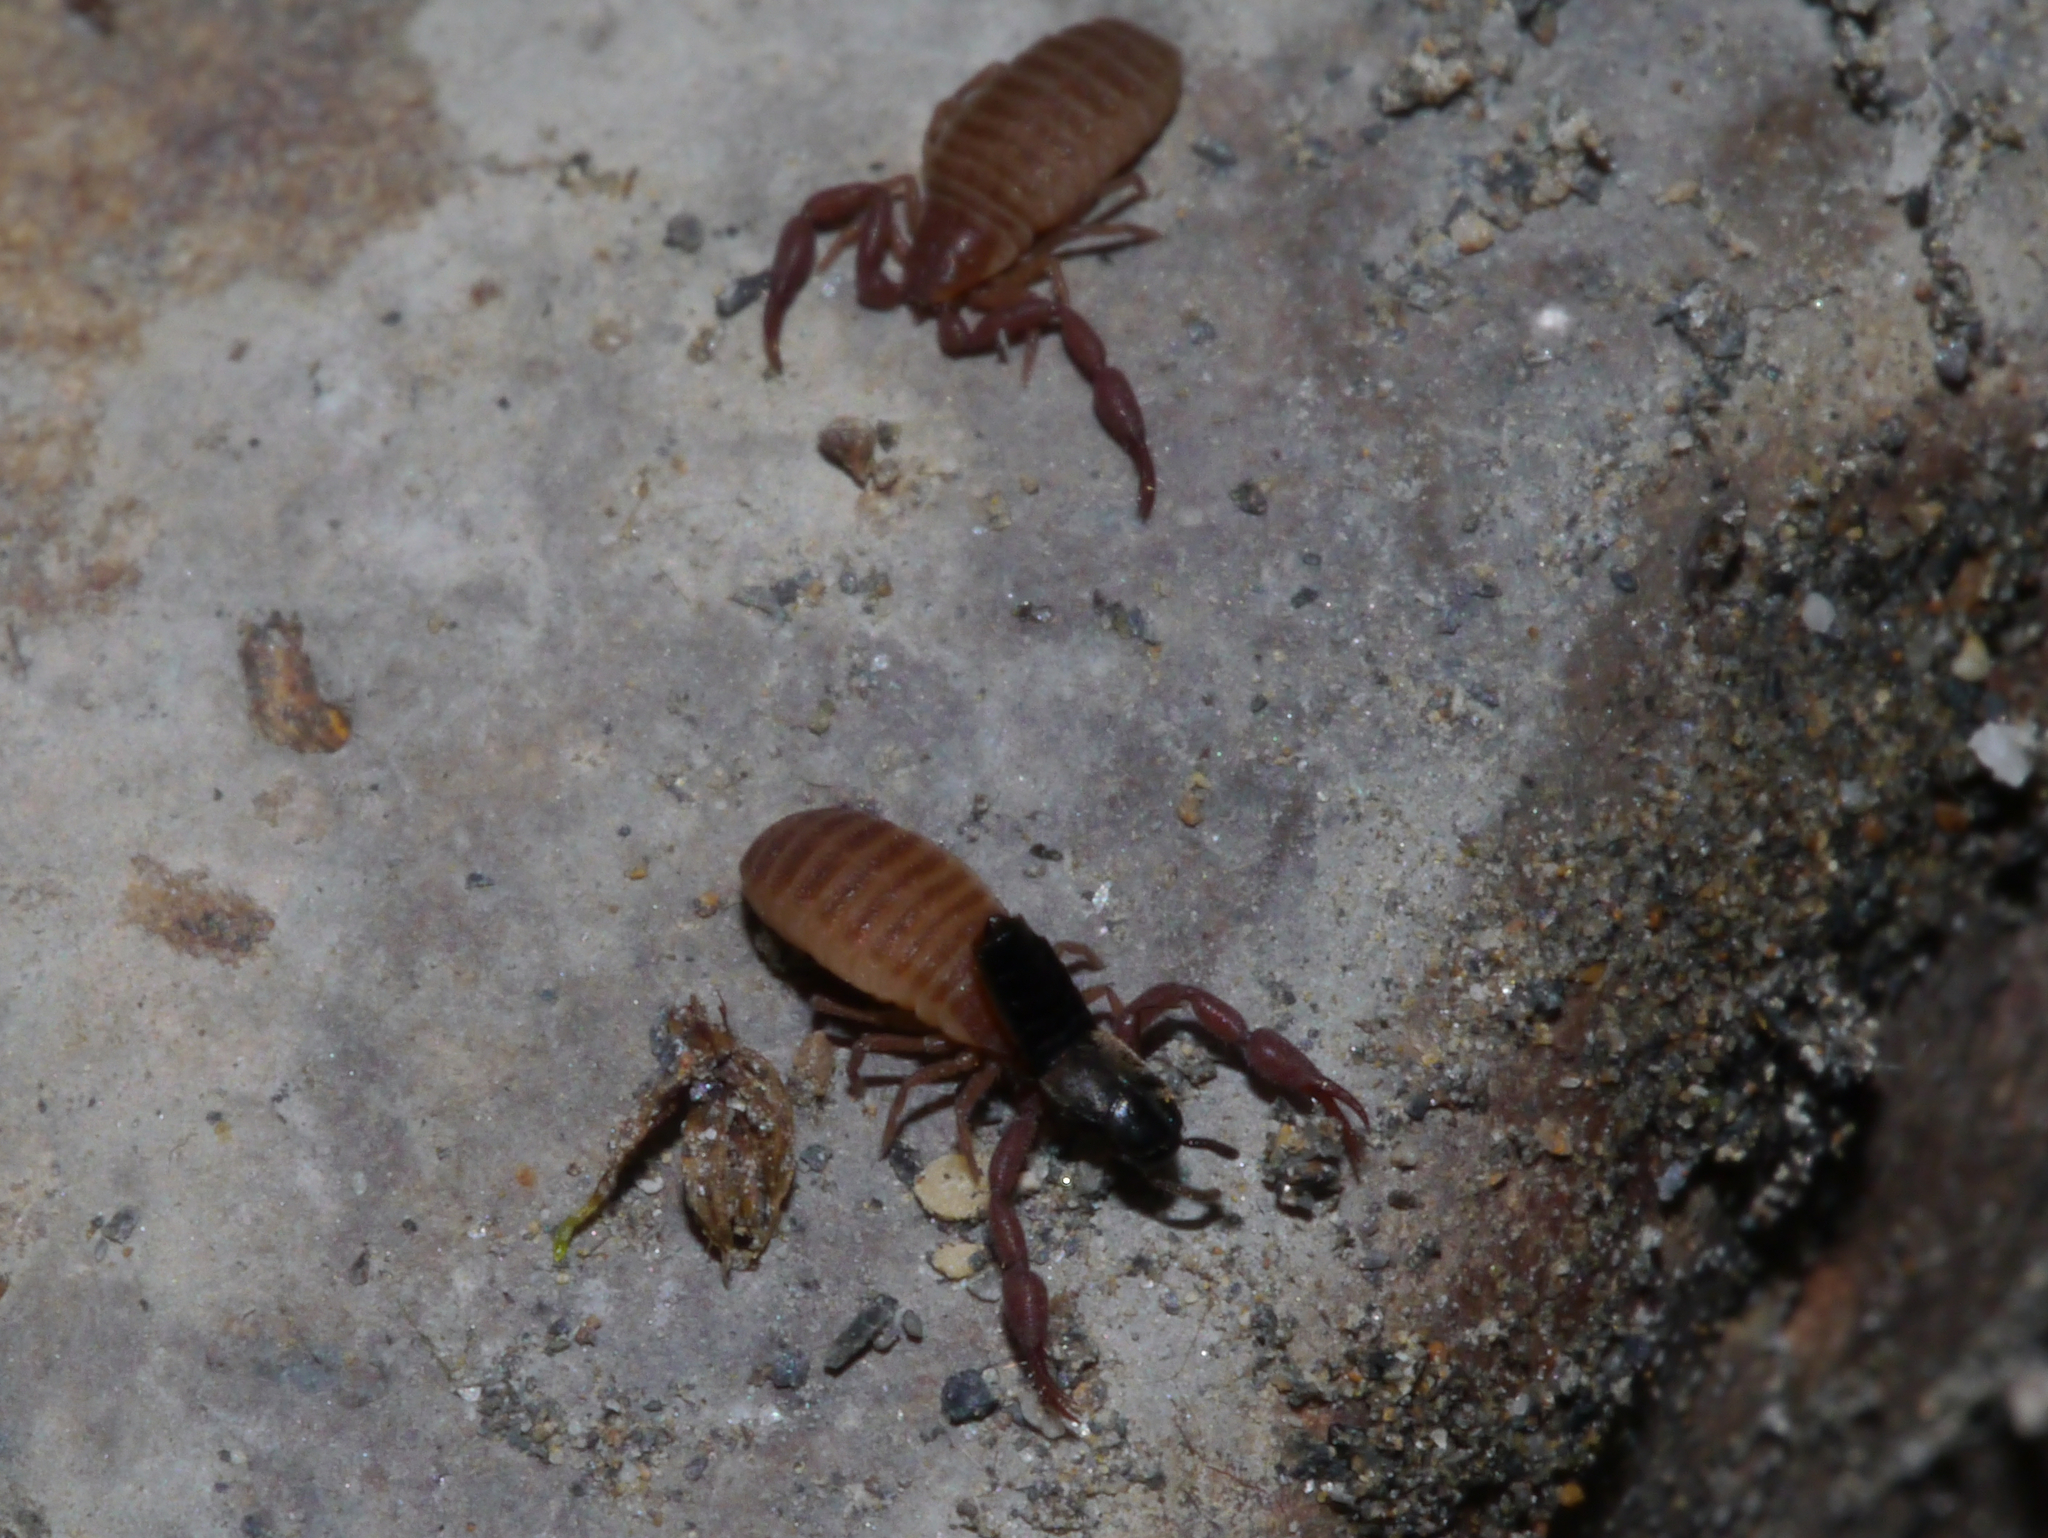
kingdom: Animalia
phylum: Arthropoda
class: Arachnida
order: Pseudoscorpiones
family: Chernetidae
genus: Wyochernes
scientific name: Wyochernes asiaticus
